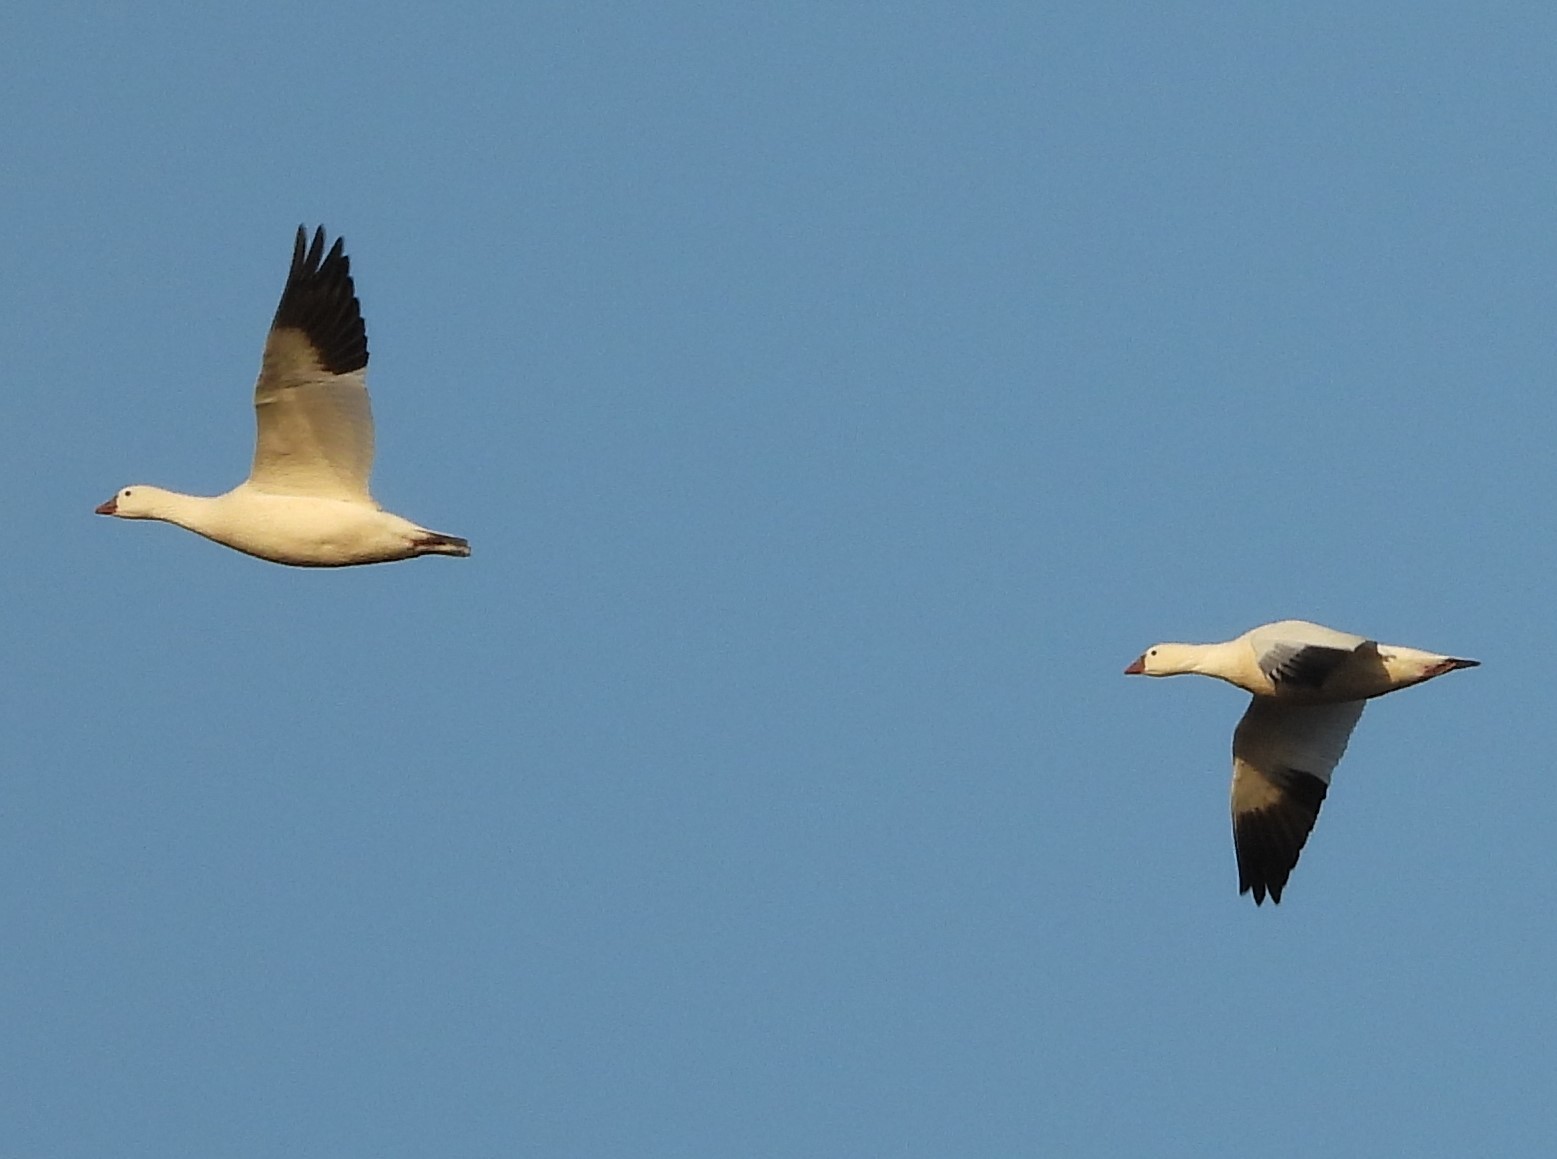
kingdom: Animalia
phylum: Chordata
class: Aves
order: Anseriformes
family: Anatidae
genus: Anser
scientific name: Anser rossii
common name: Ross's goose
